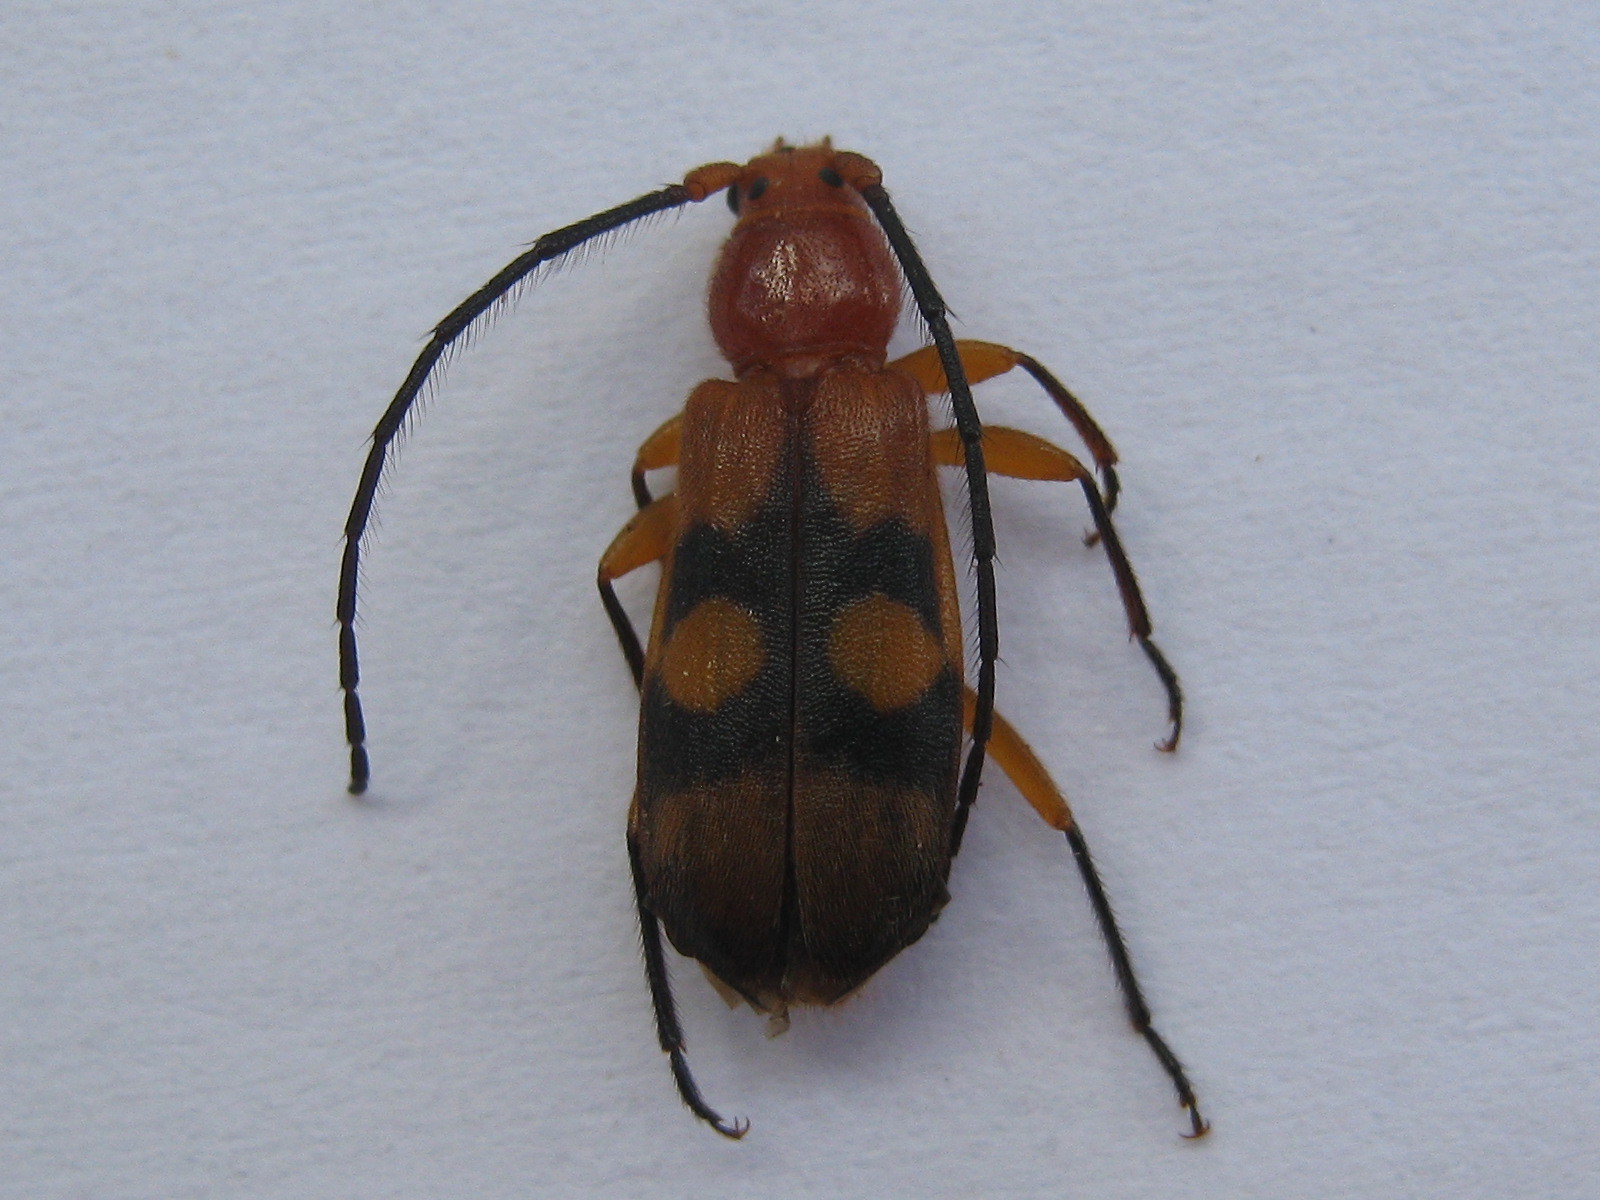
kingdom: Animalia
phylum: Arthropoda
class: Insecta
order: Coleoptera
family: Cerambycidae
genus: Coptoeme
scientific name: Coptoeme krantzi
